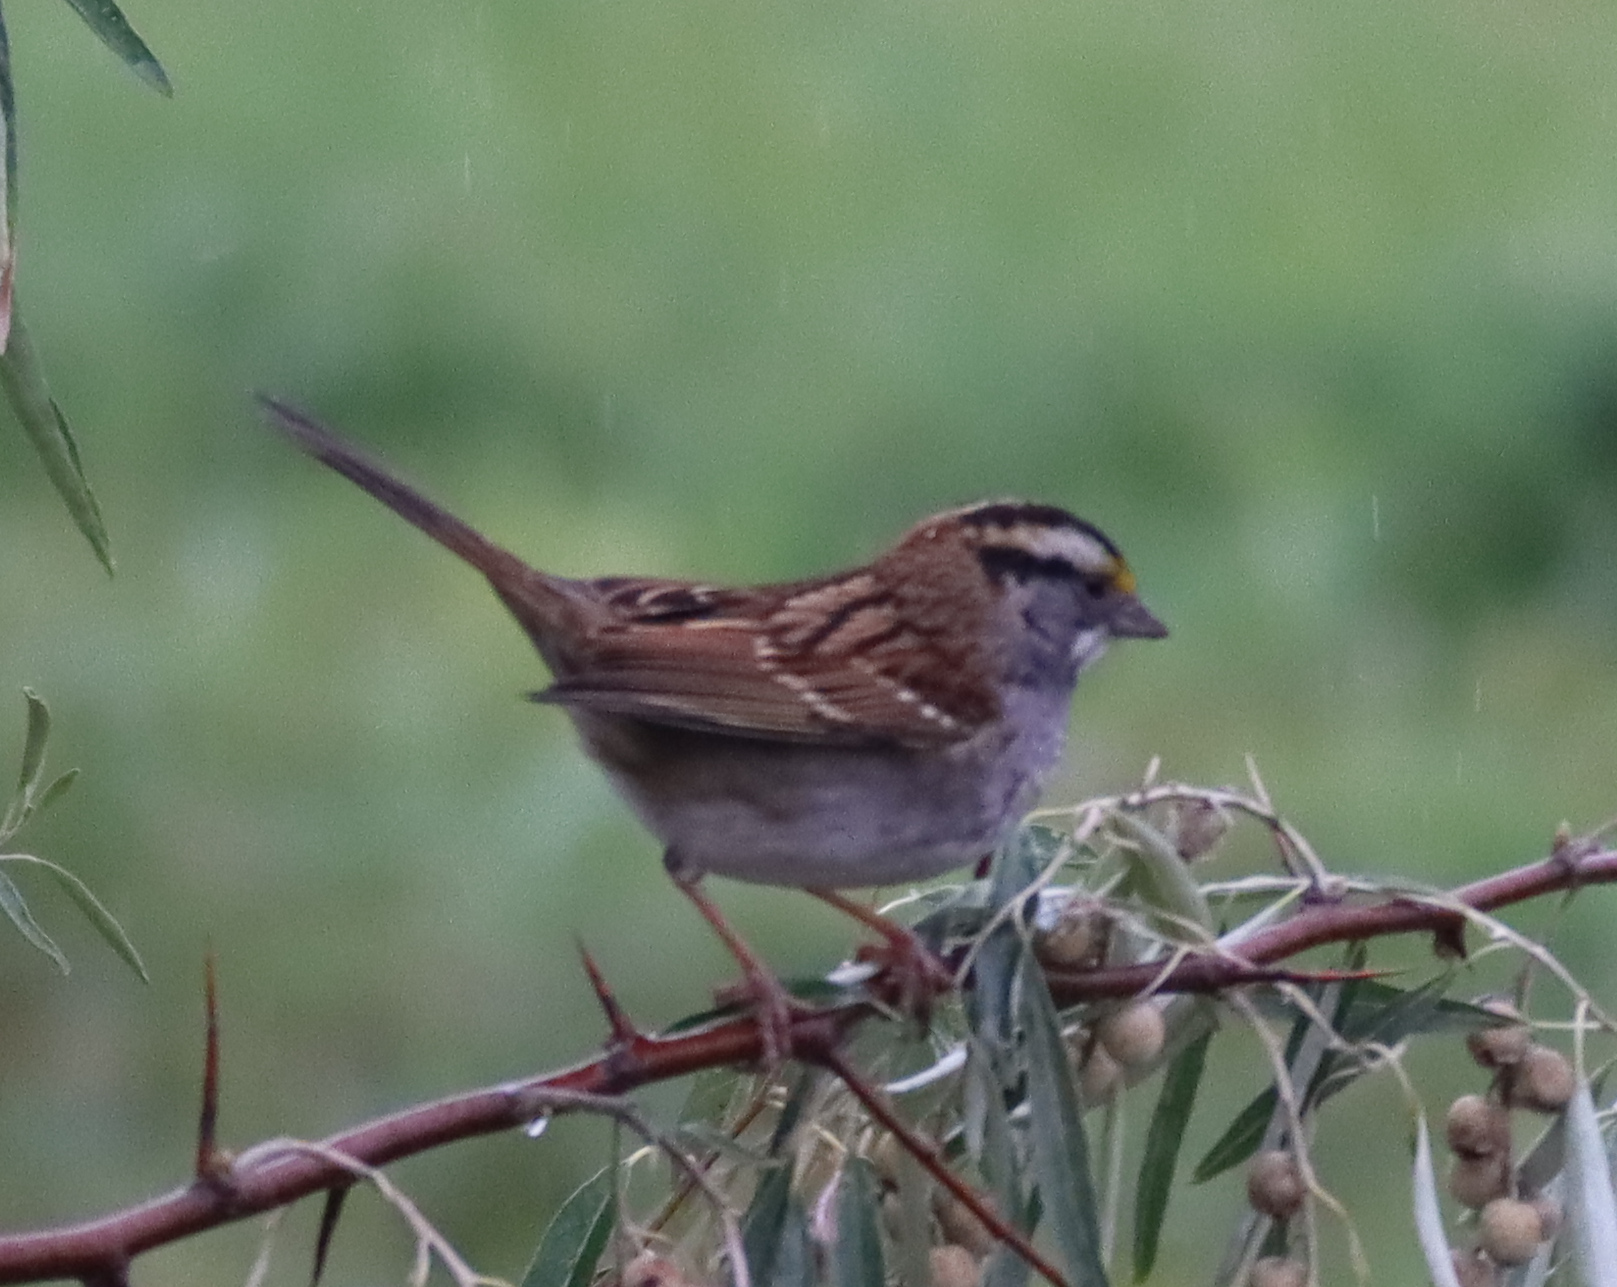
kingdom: Animalia
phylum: Chordata
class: Aves
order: Passeriformes
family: Passerellidae
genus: Zonotrichia
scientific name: Zonotrichia albicollis
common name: White-throated sparrow
